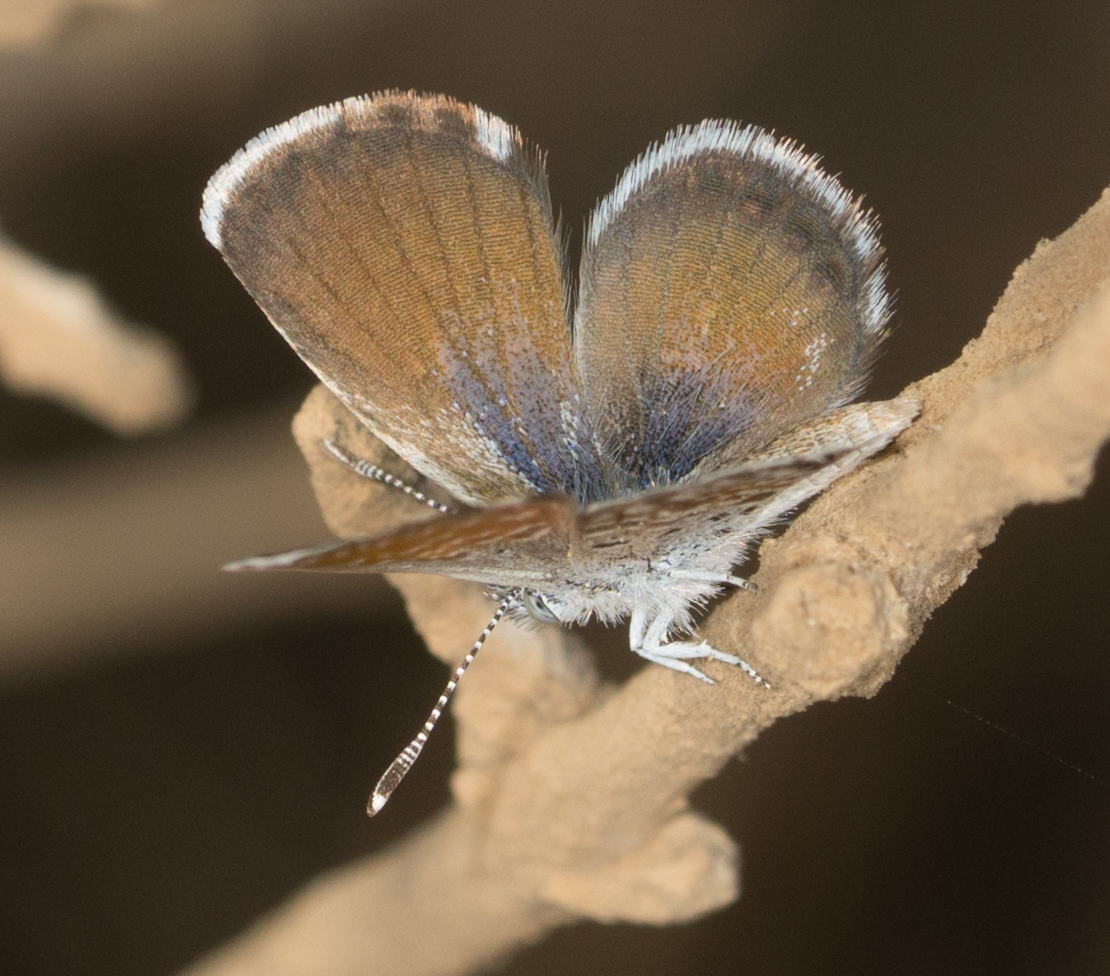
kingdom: Animalia
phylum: Arthropoda
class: Insecta
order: Lepidoptera
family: Lycaenidae
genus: Brephidium
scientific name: Brephidium exilis
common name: Pygmy blue
